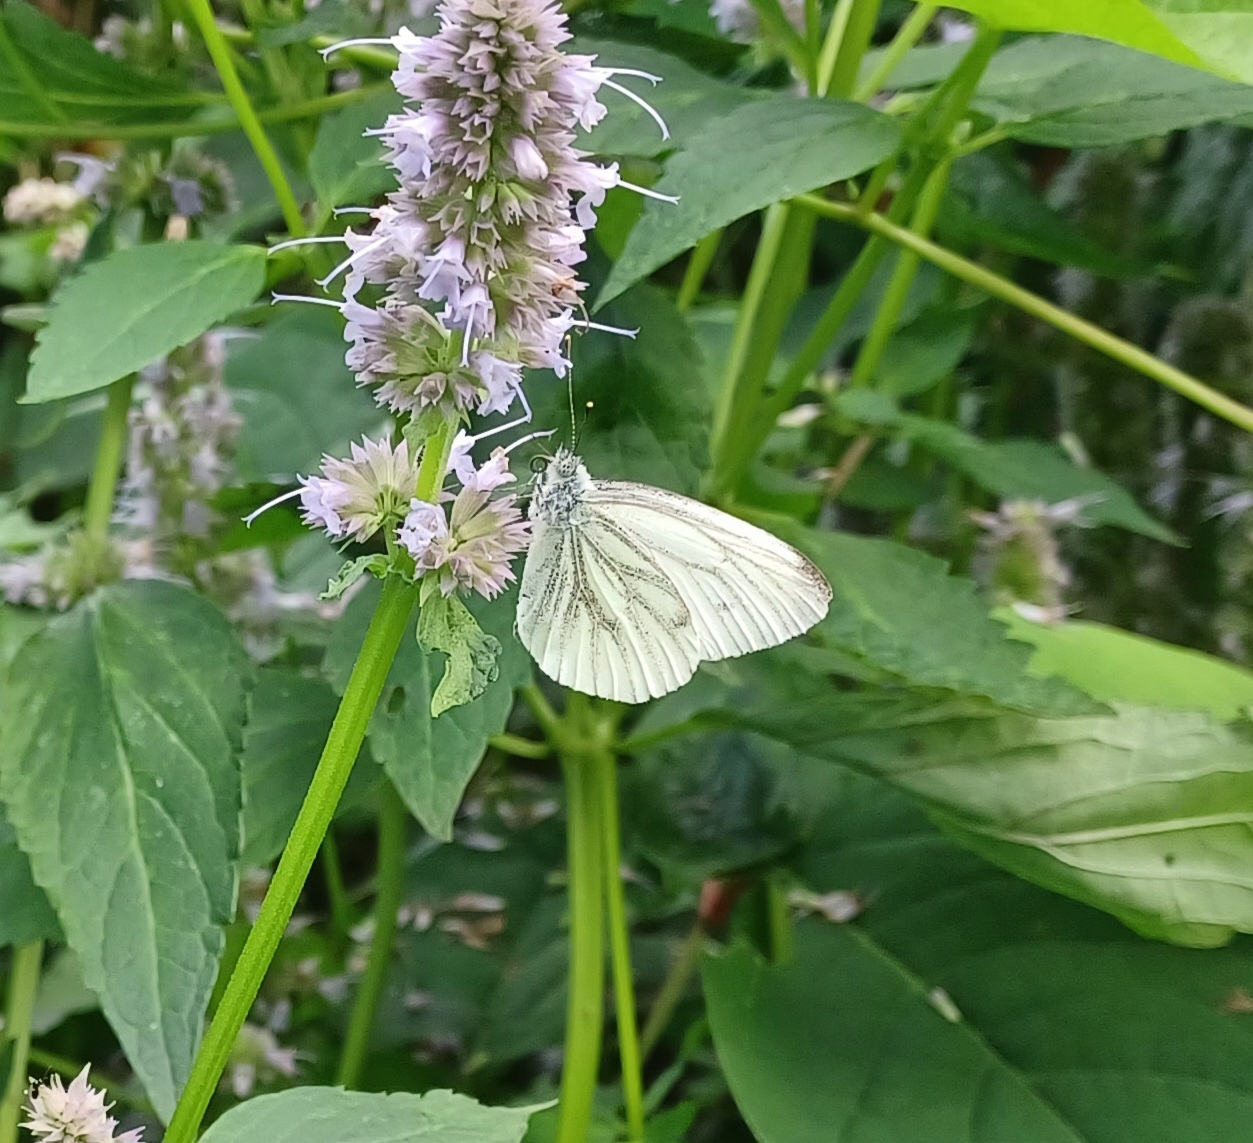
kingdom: Animalia
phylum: Arthropoda
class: Insecta
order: Lepidoptera
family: Pieridae
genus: Pieris
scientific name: Pieris napi
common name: Green-veined white
